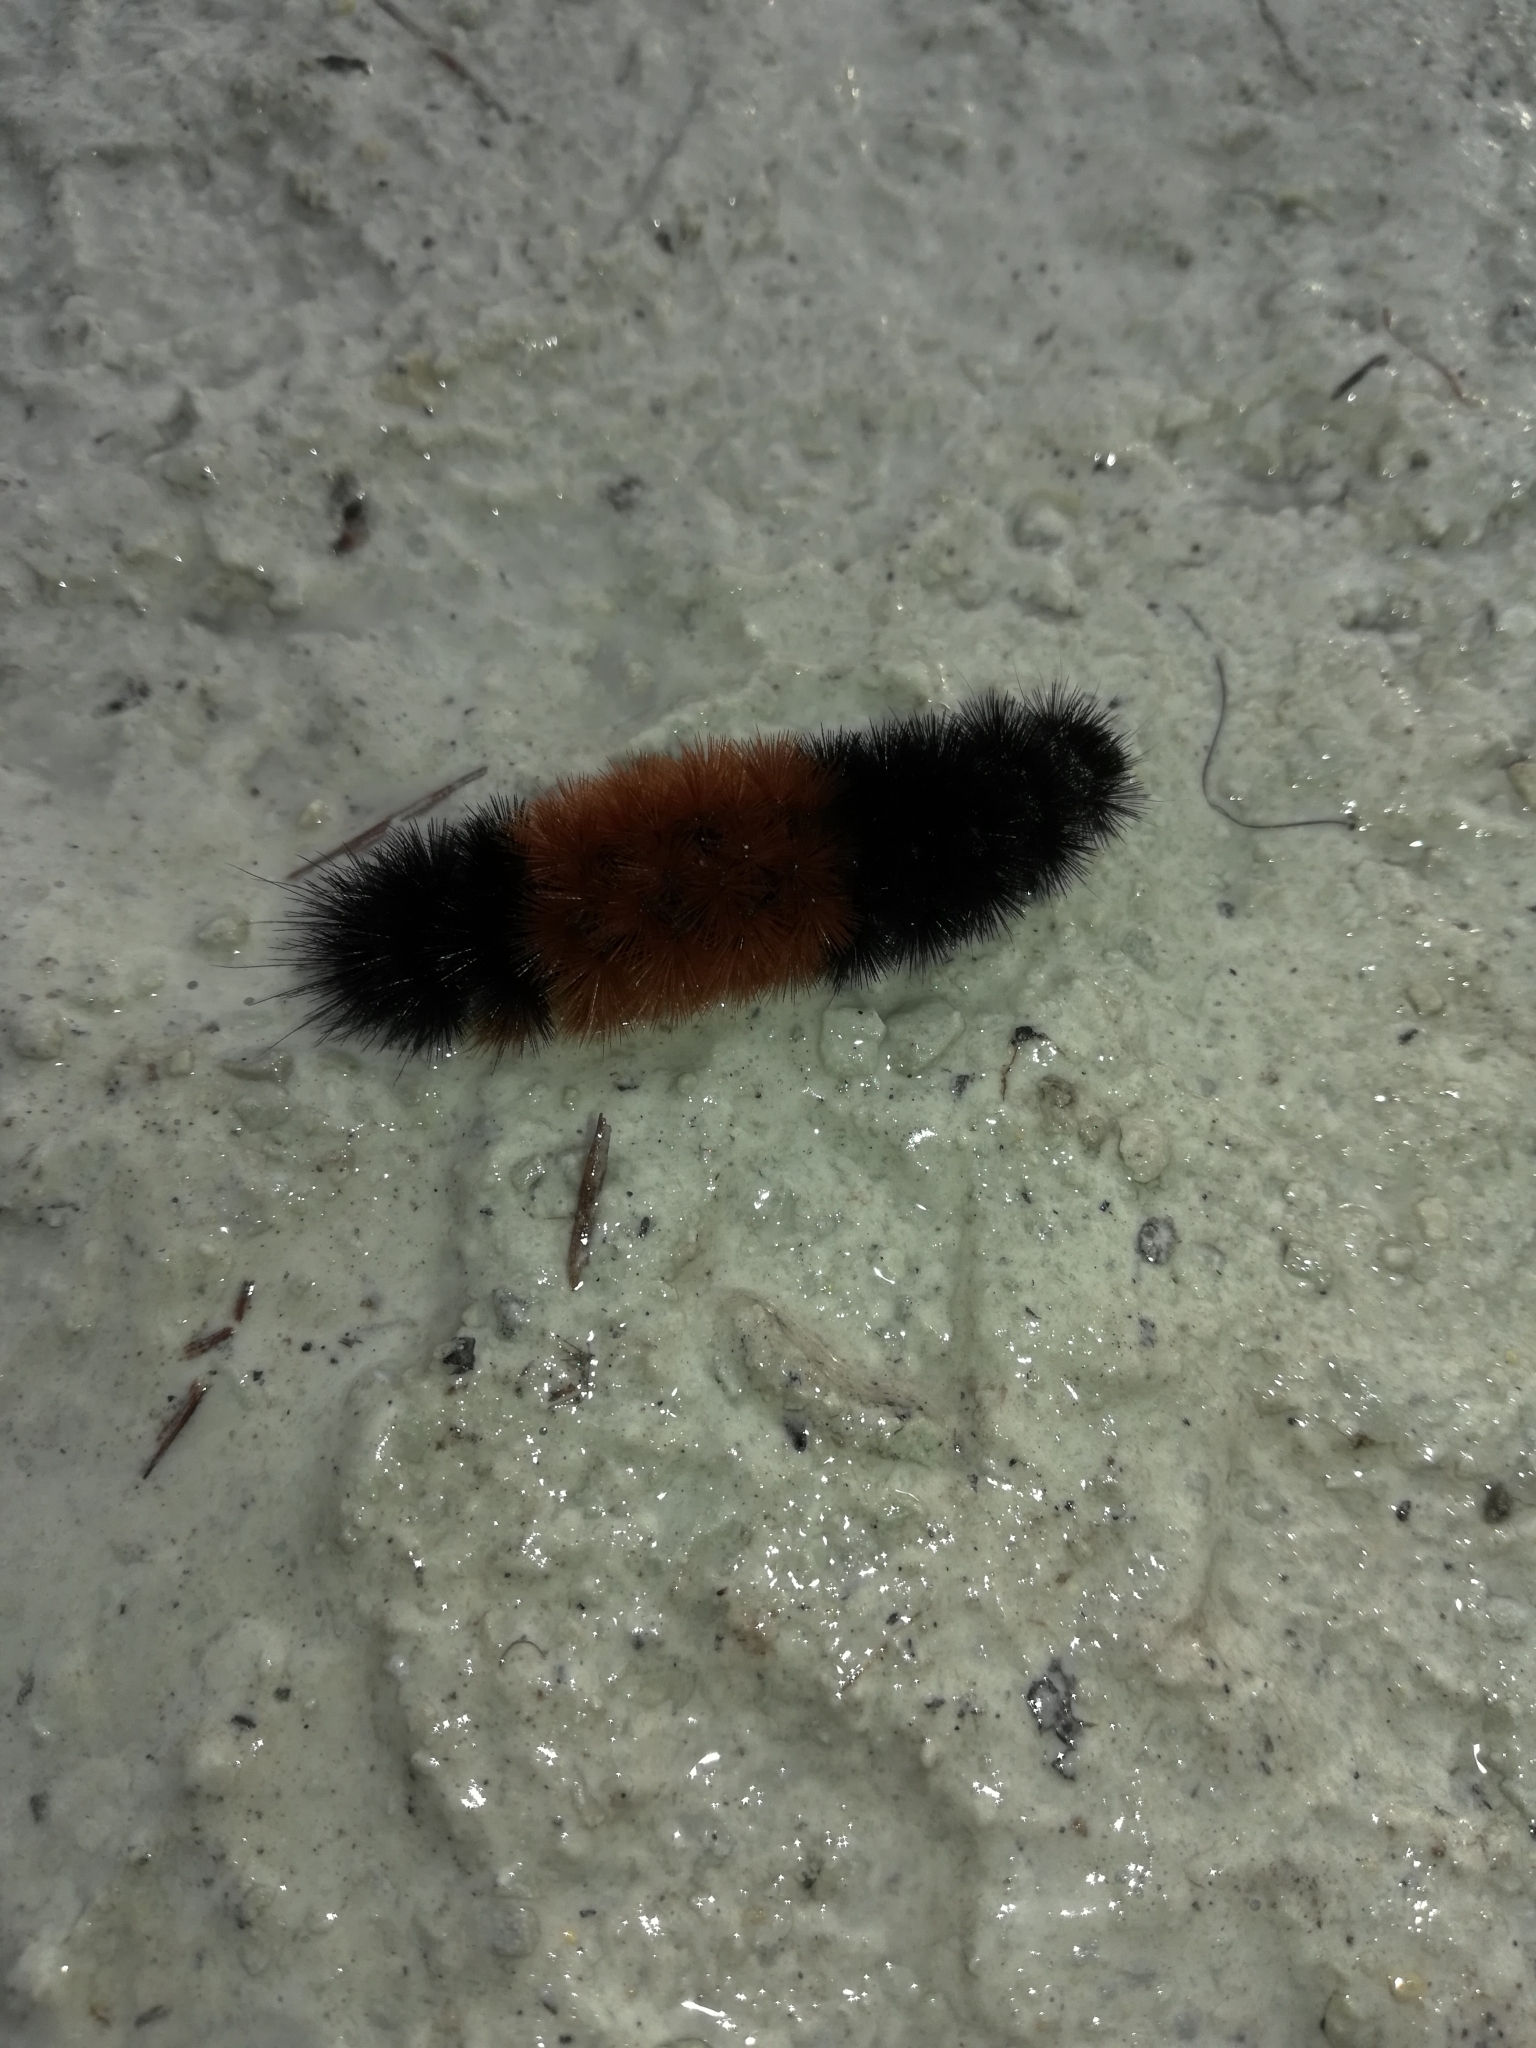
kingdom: Animalia
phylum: Arthropoda
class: Insecta
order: Lepidoptera
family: Erebidae
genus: Pyrrharctia
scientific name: Pyrrharctia isabella
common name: Isabella tiger moth
